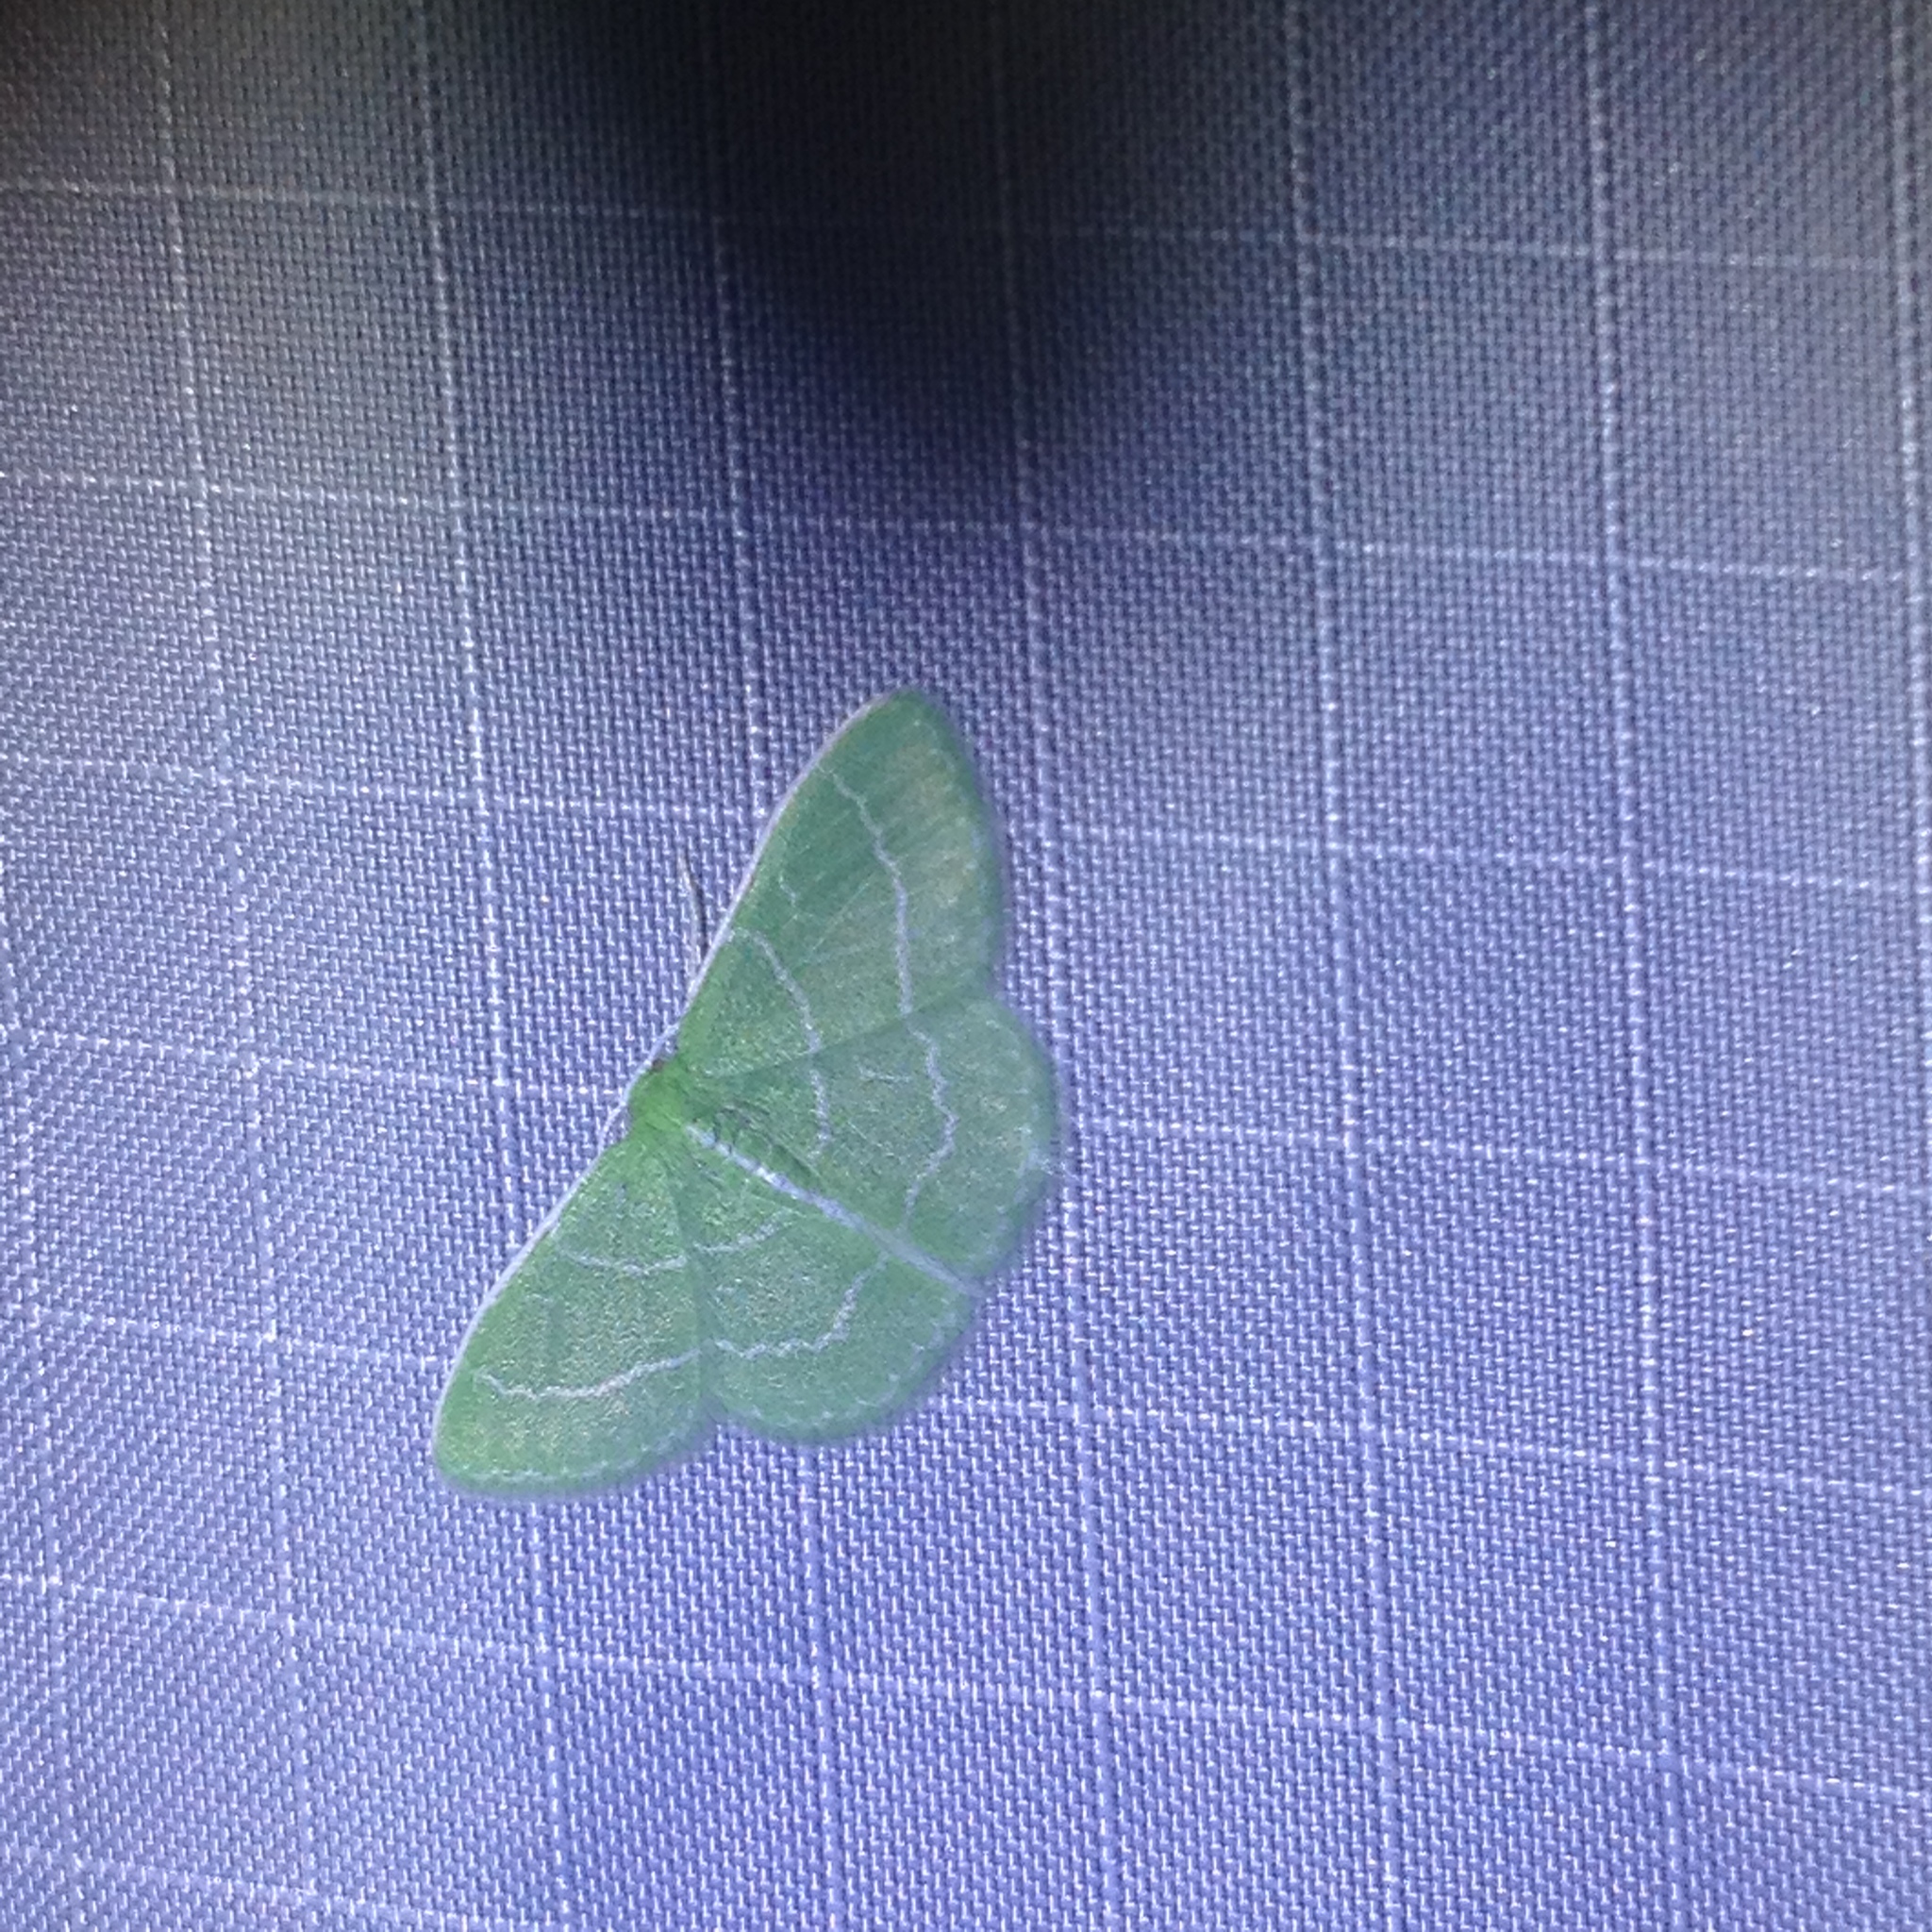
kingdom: Animalia
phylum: Arthropoda
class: Insecta
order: Lepidoptera
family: Geometridae
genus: Synchlora
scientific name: Synchlora aerata
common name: Wavy-lined emerald
